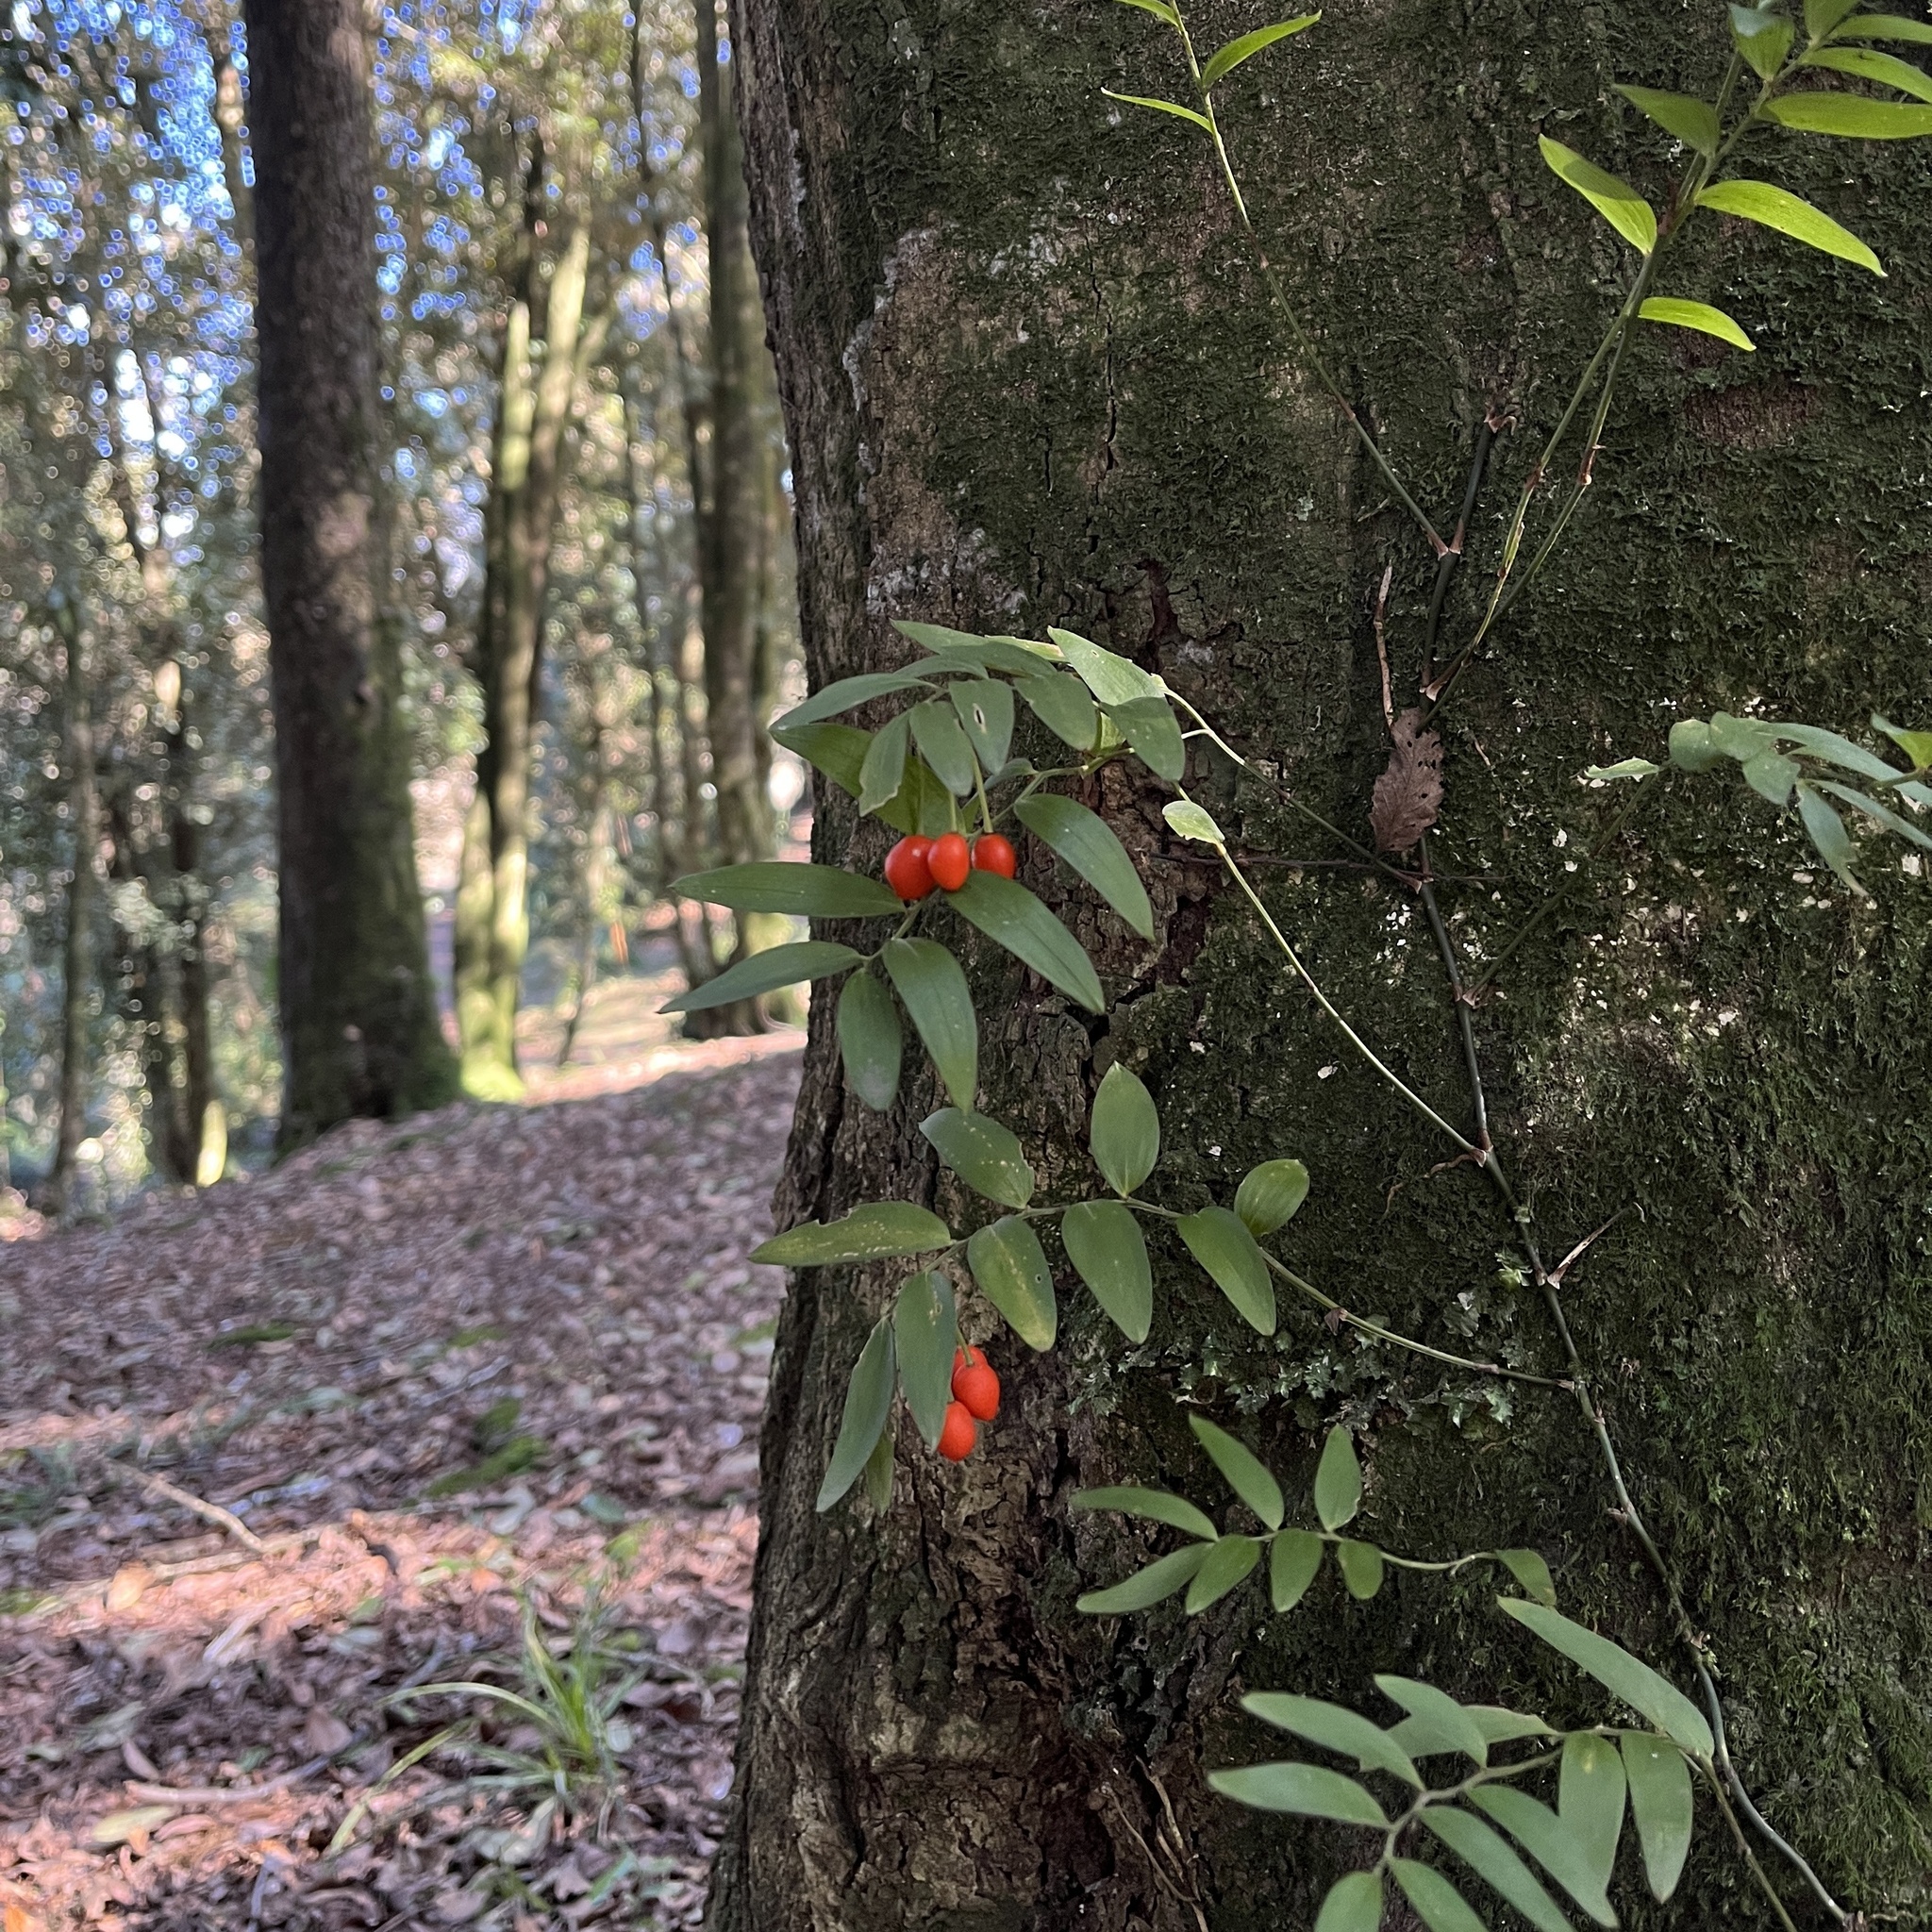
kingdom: Plantae
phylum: Tracheophyta
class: Liliopsida
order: Liliales
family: Alstroemeriaceae
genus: Luzuriaga
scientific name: Luzuriaga radicans
